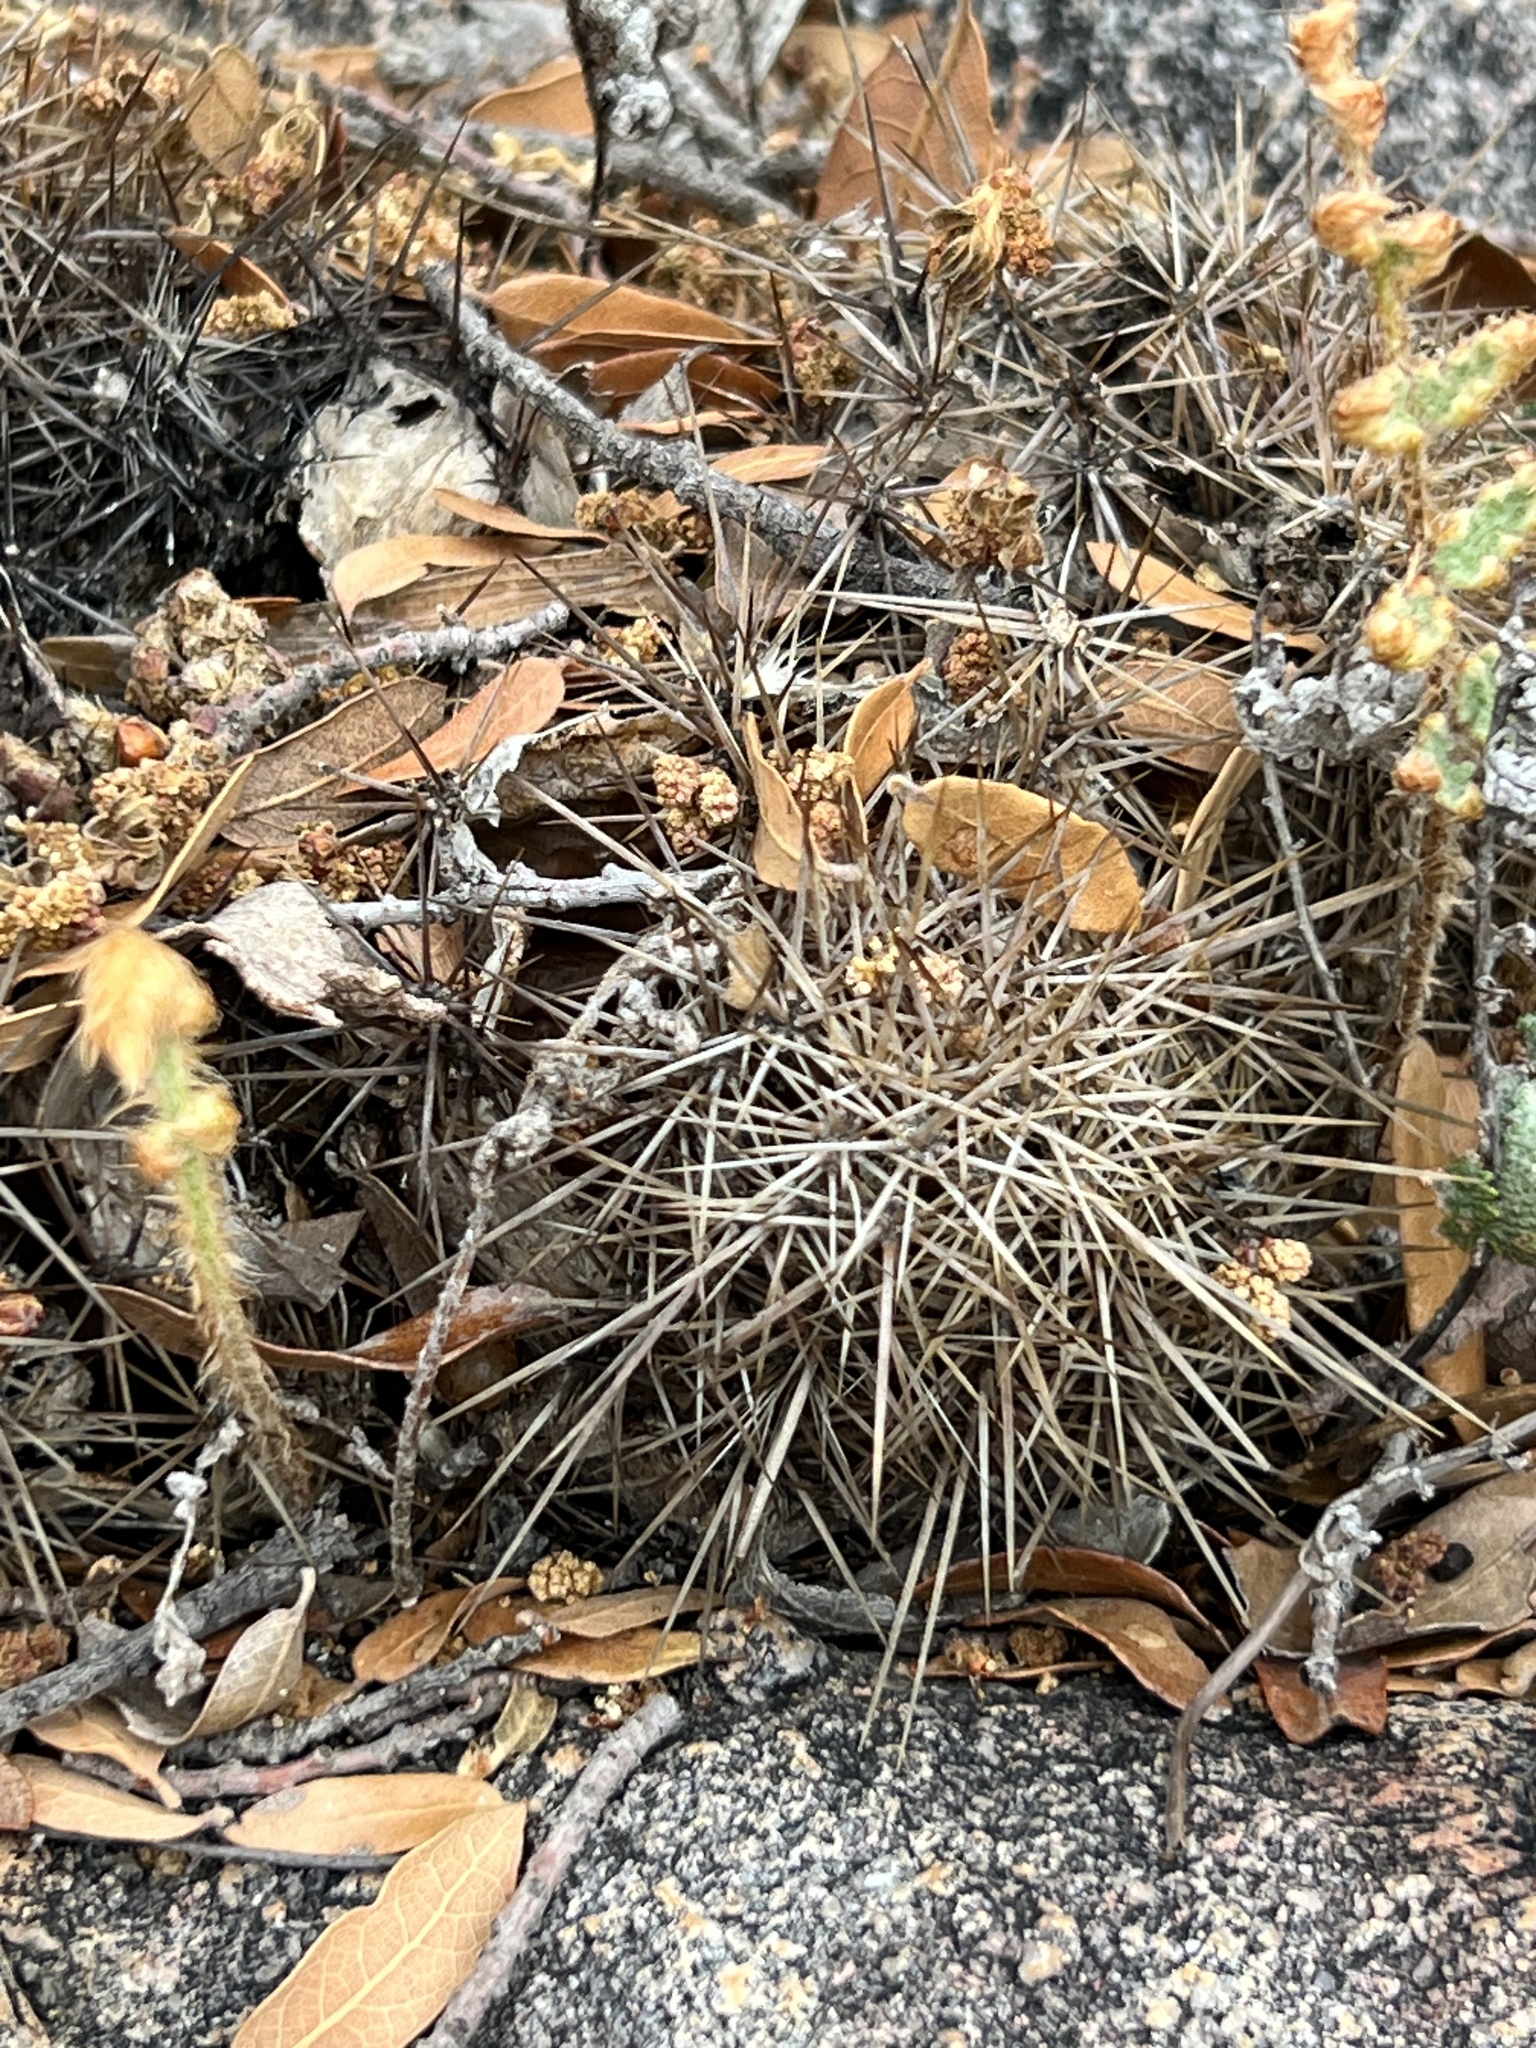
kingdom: Plantae
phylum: Tracheophyta
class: Magnoliopsida
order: Caryophyllales
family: Cactaceae
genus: Echinocereus
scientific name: Echinocereus coccineus
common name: Scarlet hedgehog cactus
